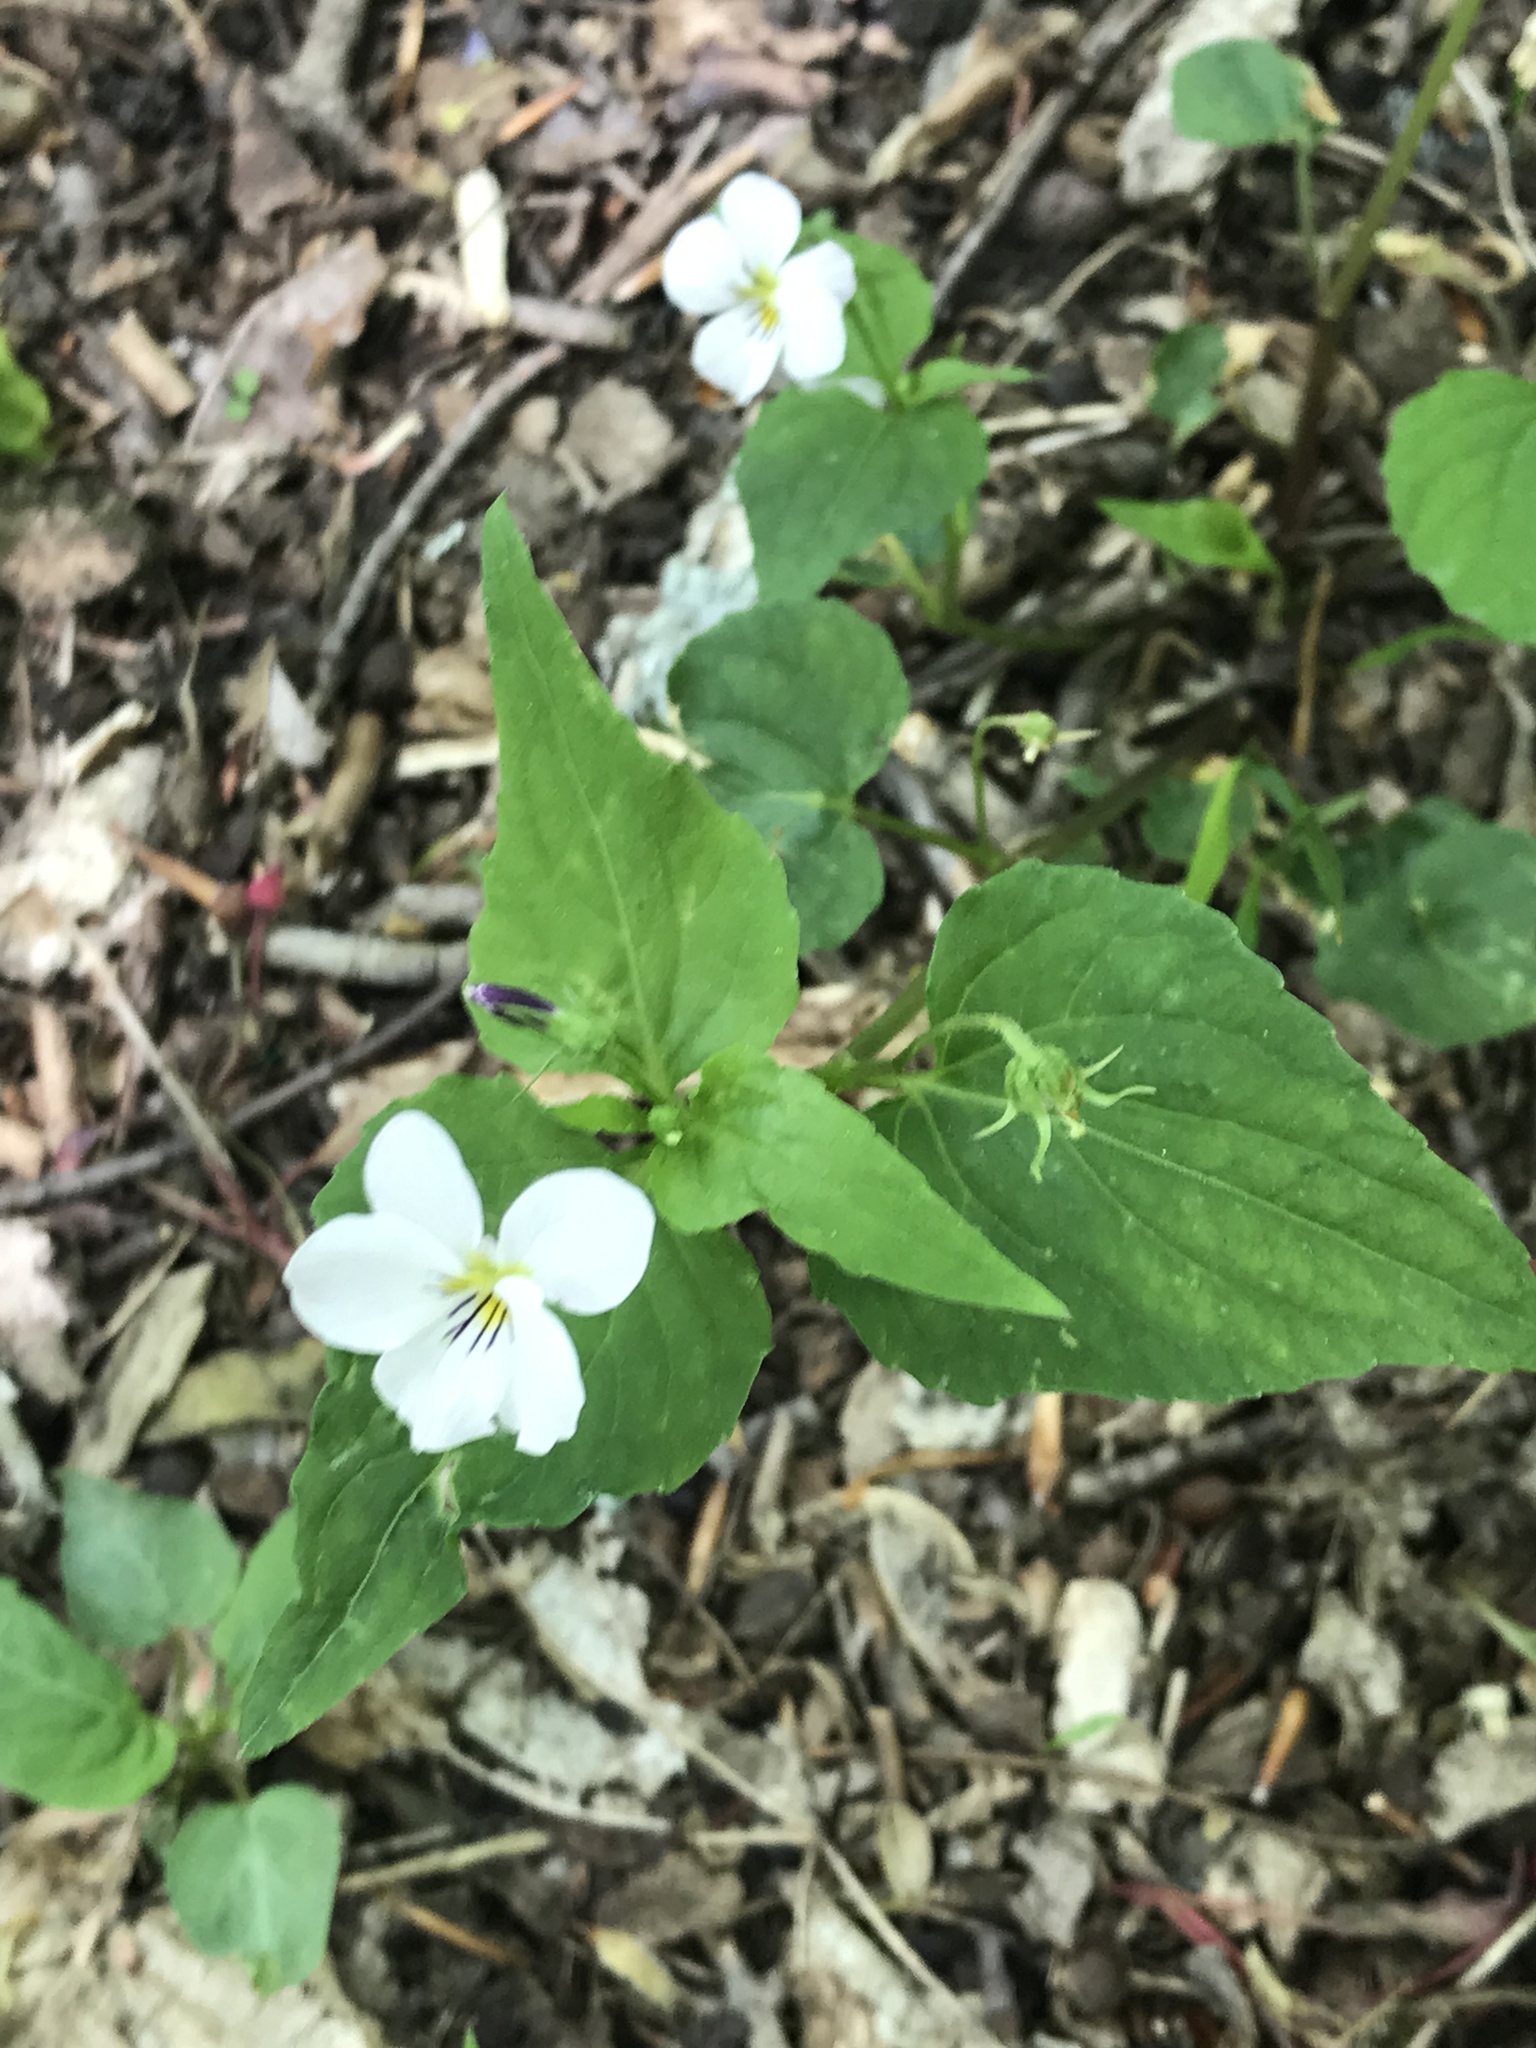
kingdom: Plantae
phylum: Tracheophyta
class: Magnoliopsida
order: Malpighiales
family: Violaceae
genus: Viola
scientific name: Viola canadensis
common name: Canada violet
